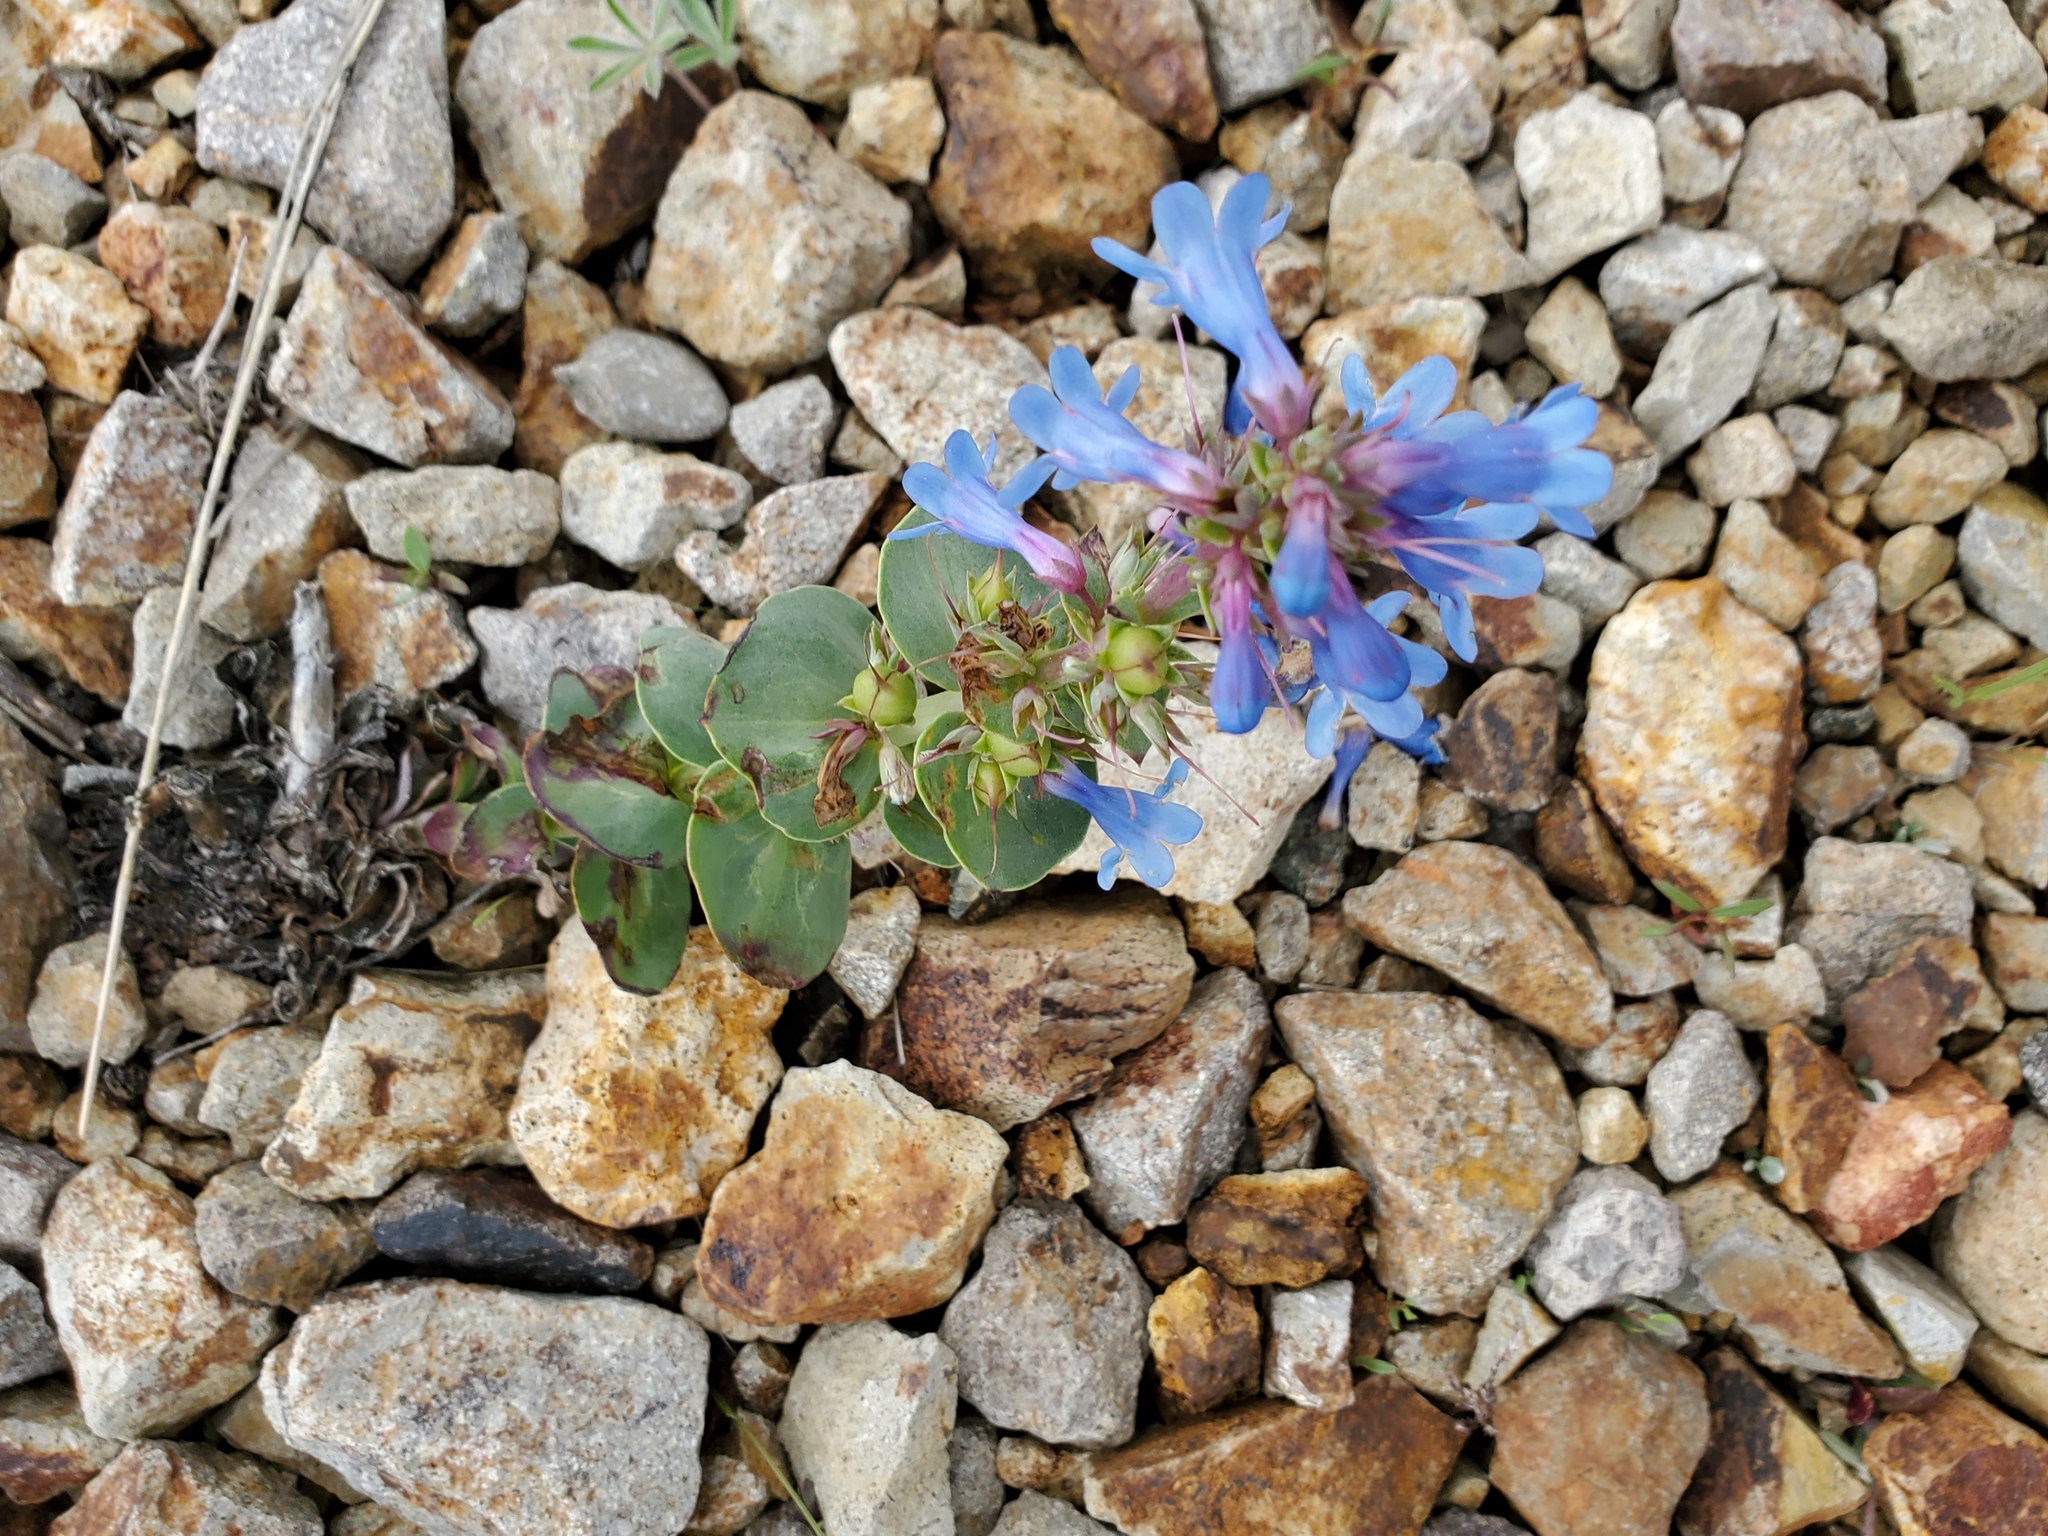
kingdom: Plantae
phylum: Tracheophyta
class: Magnoliopsida
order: Lamiales
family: Plantaginaceae
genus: Penstemon
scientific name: Penstemon nitidus
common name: Shining penstemon
